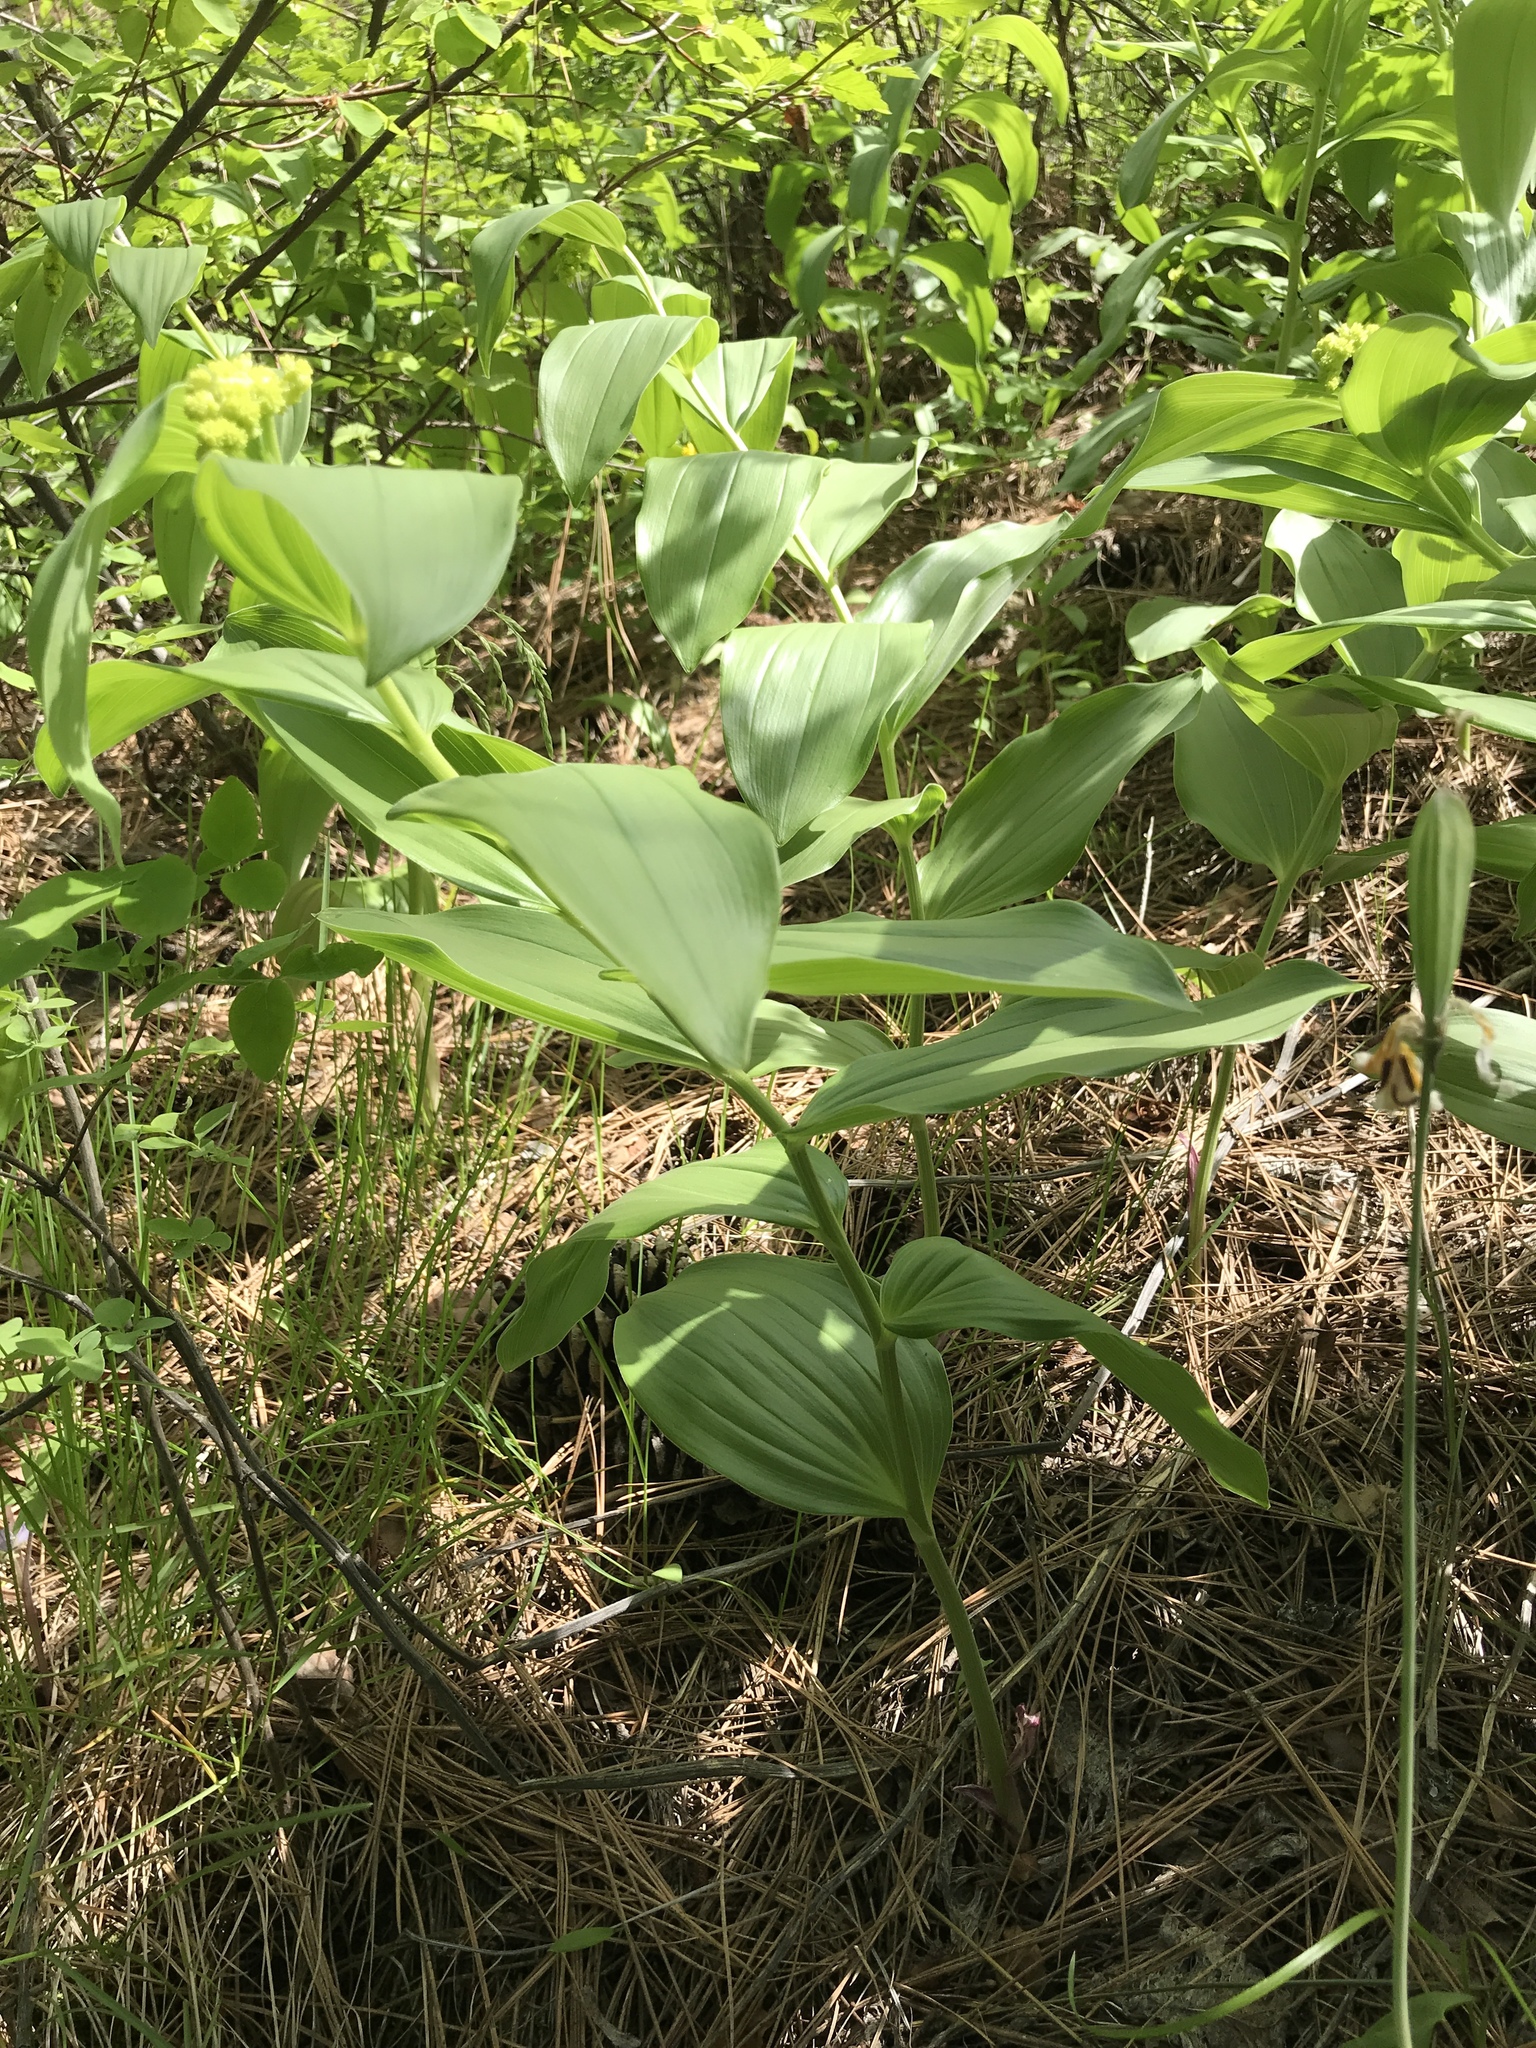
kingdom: Plantae
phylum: Tracheophyta
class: Liliopsida
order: Asparagales
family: Asparagaceae
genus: Maianthemum
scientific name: Maianthemum racemosum
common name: False spikenard
